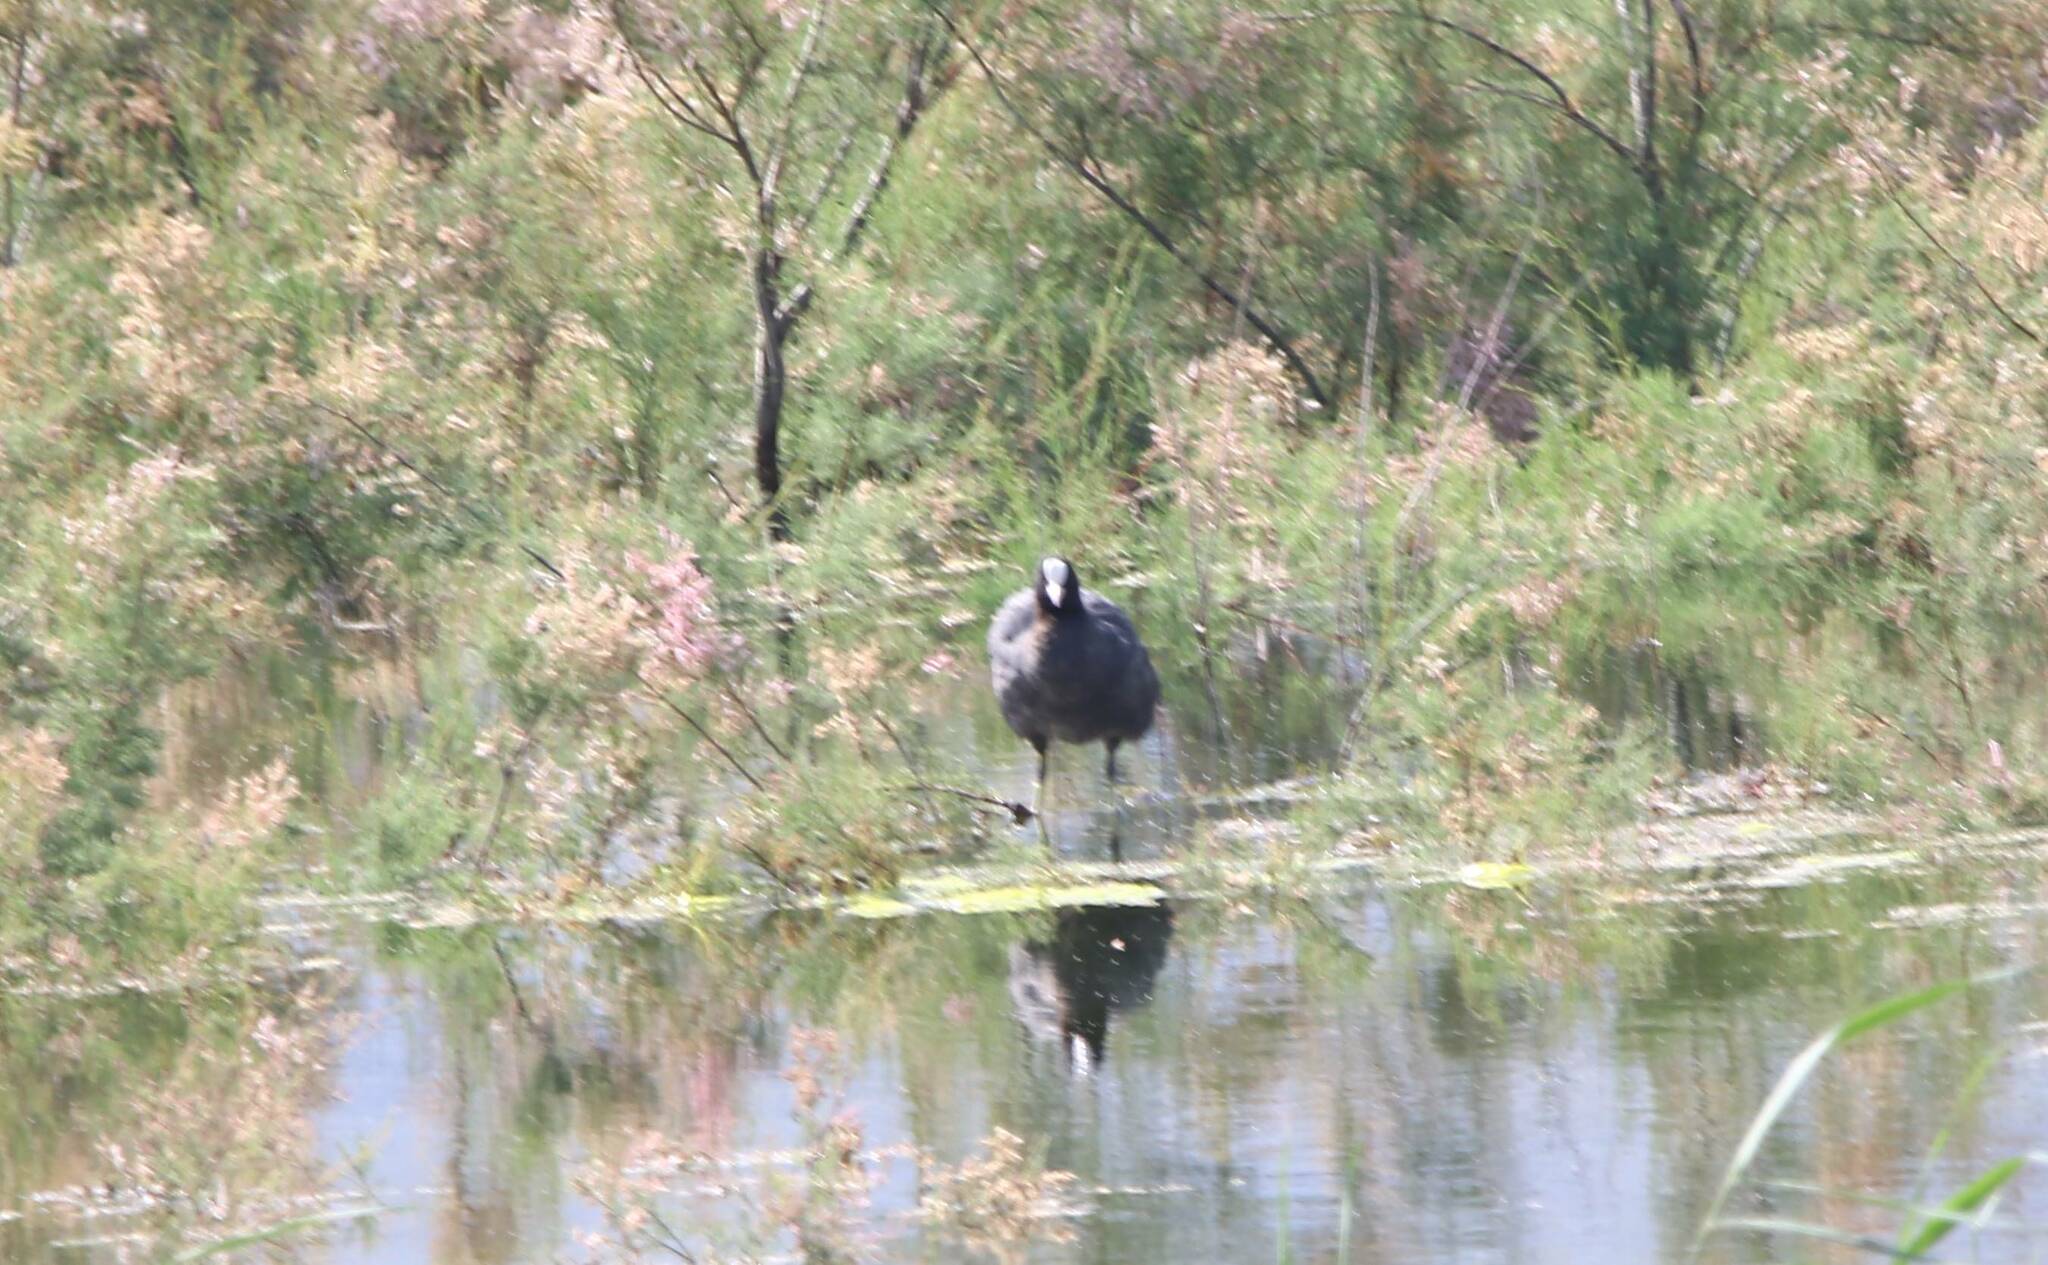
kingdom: Animalia
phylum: Chordata
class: Aves
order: Gruiformes
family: Rallidae
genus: Fulica
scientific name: Fulica atra
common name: Eurasian coot
